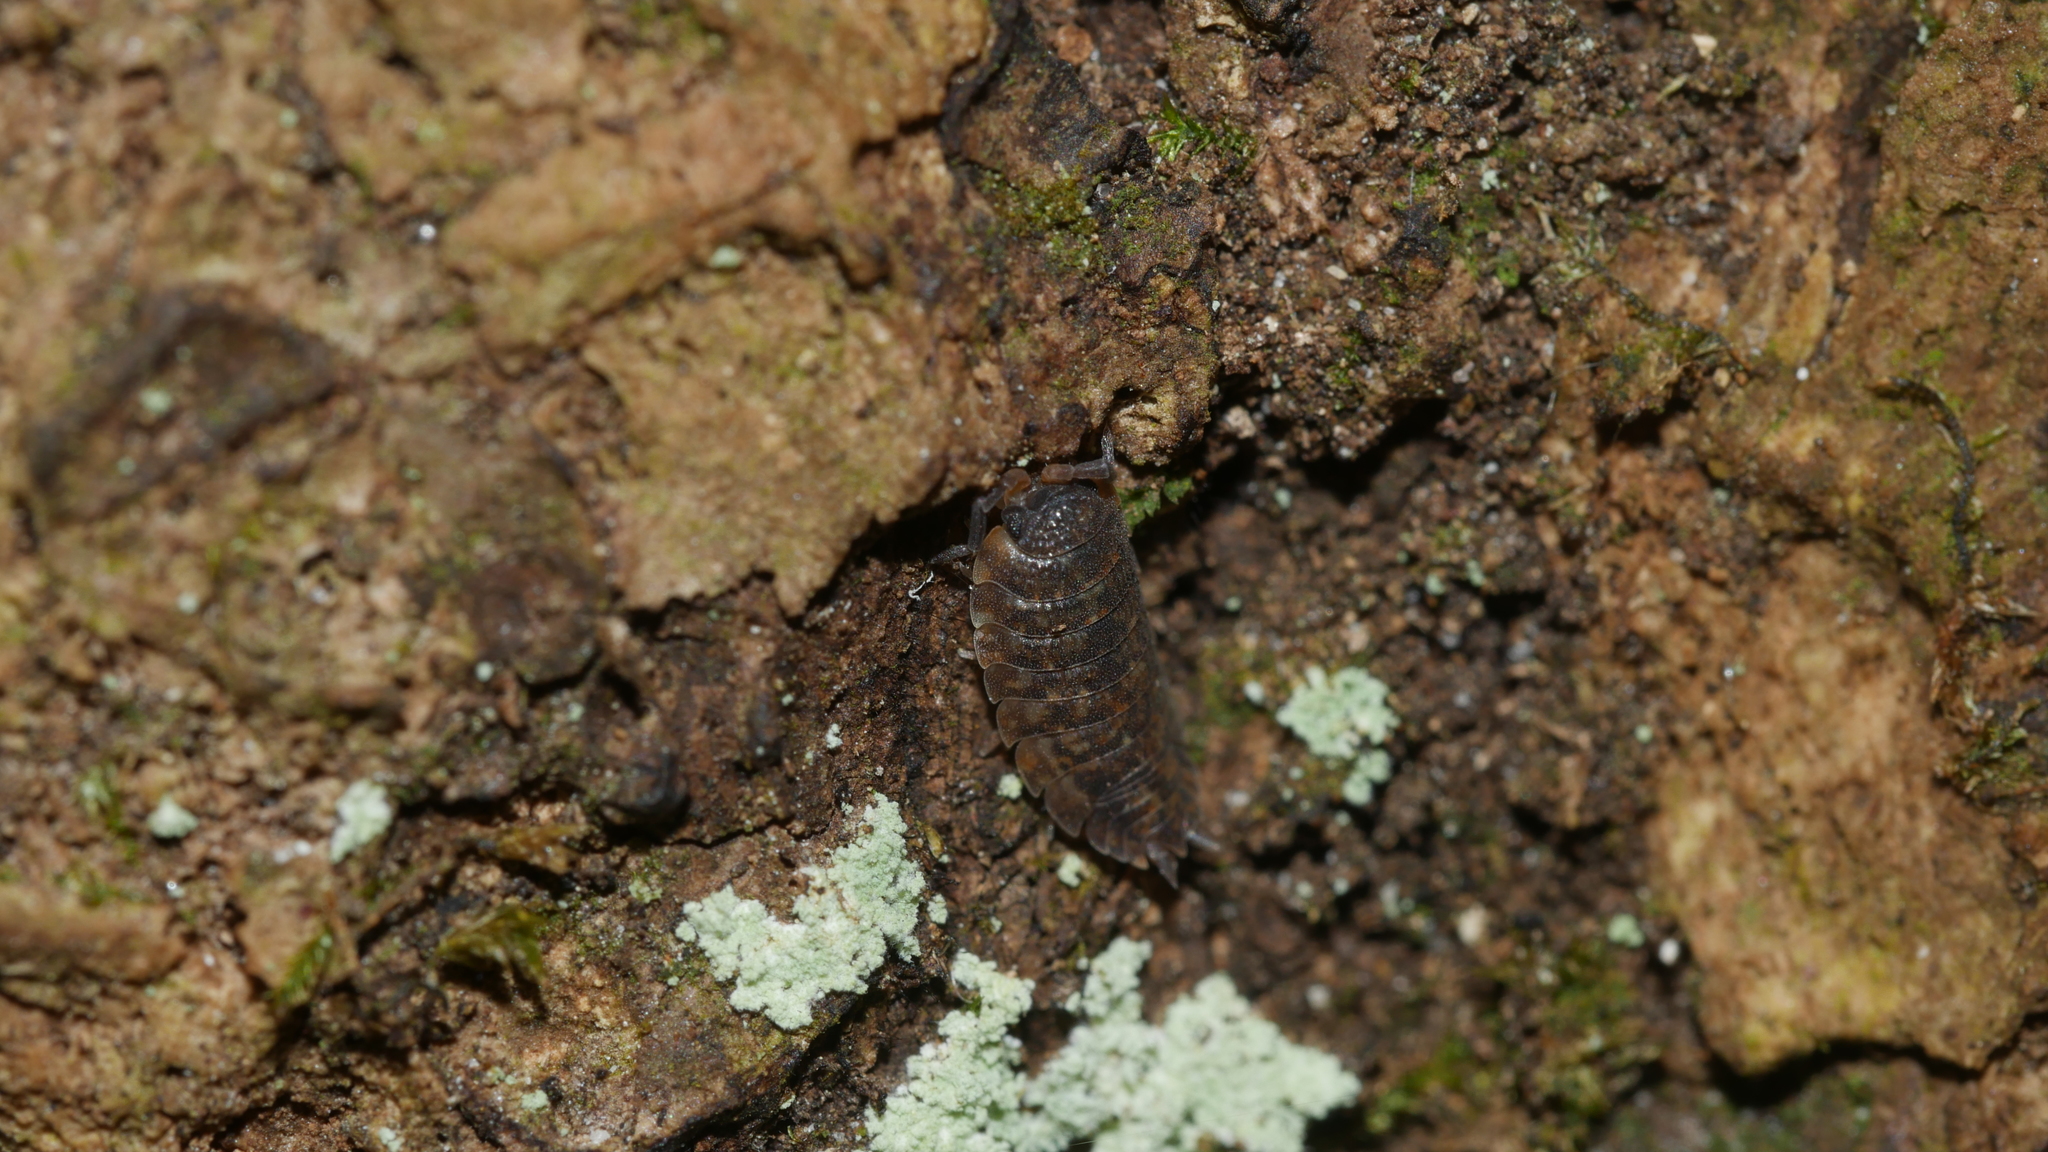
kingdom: Animalia
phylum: Arthropoda
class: Malacostraca
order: Isopoda
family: Porcellionidae
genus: Porcellio
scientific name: Porcellio scaber
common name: Common rough woodlouse
